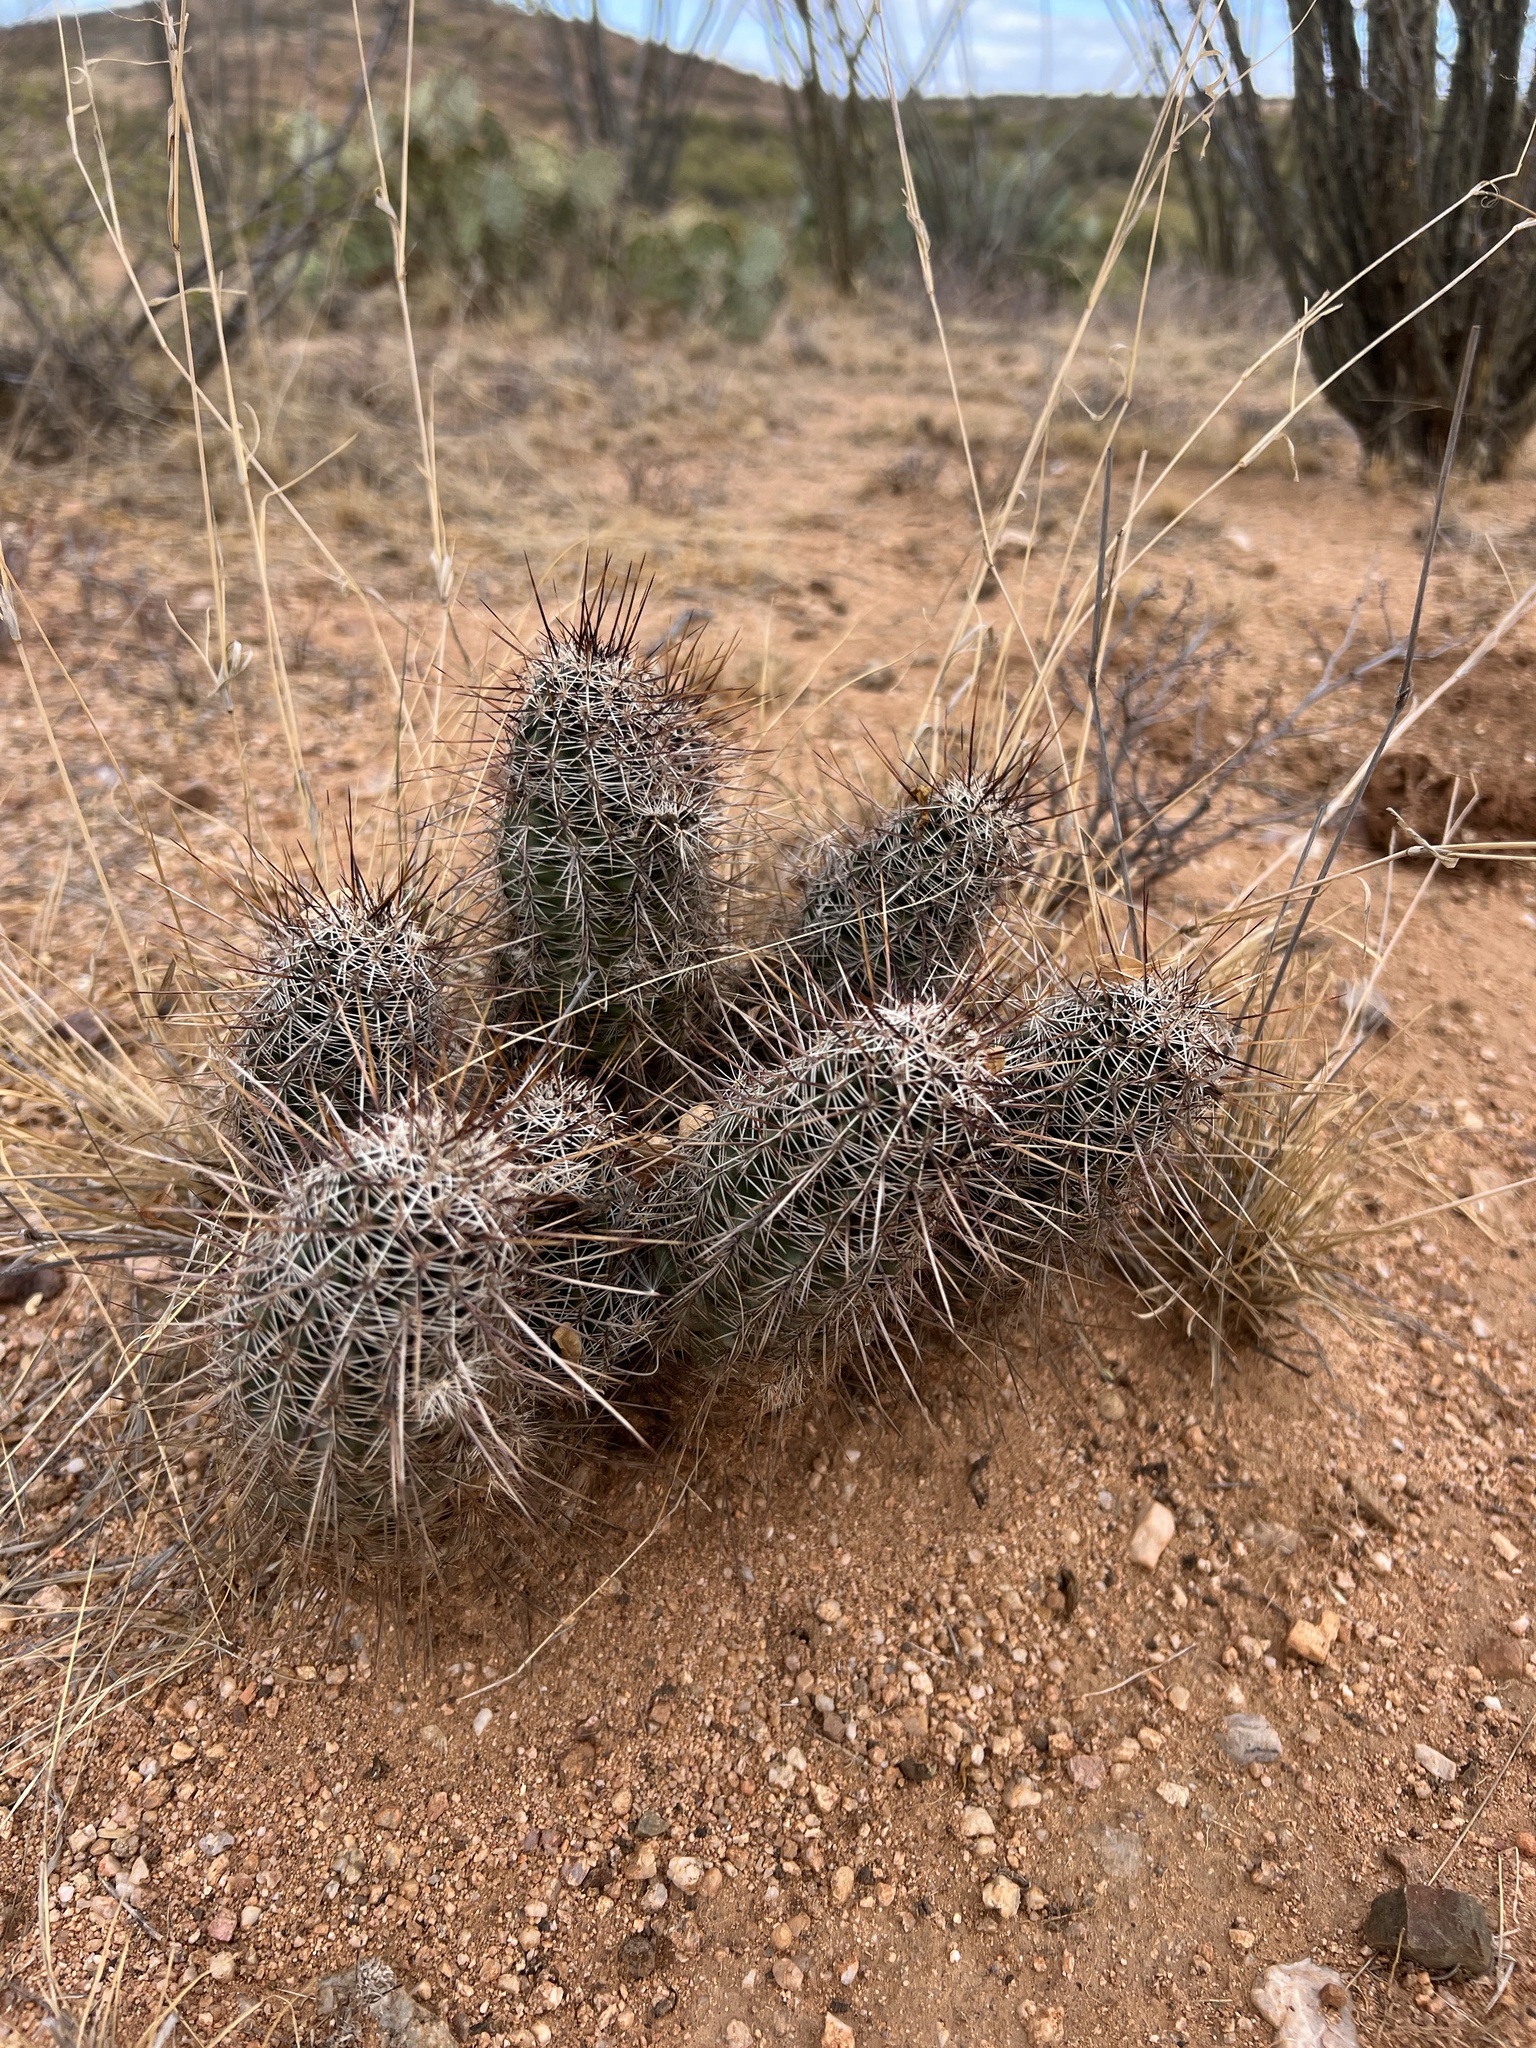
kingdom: Plantae
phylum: Tracheophyta
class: Magnoliopsida
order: Caryophyllales
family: Cactaceae
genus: Echinocereus
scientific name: Echinocereus fasciculatus
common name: Bundle hedgehog
